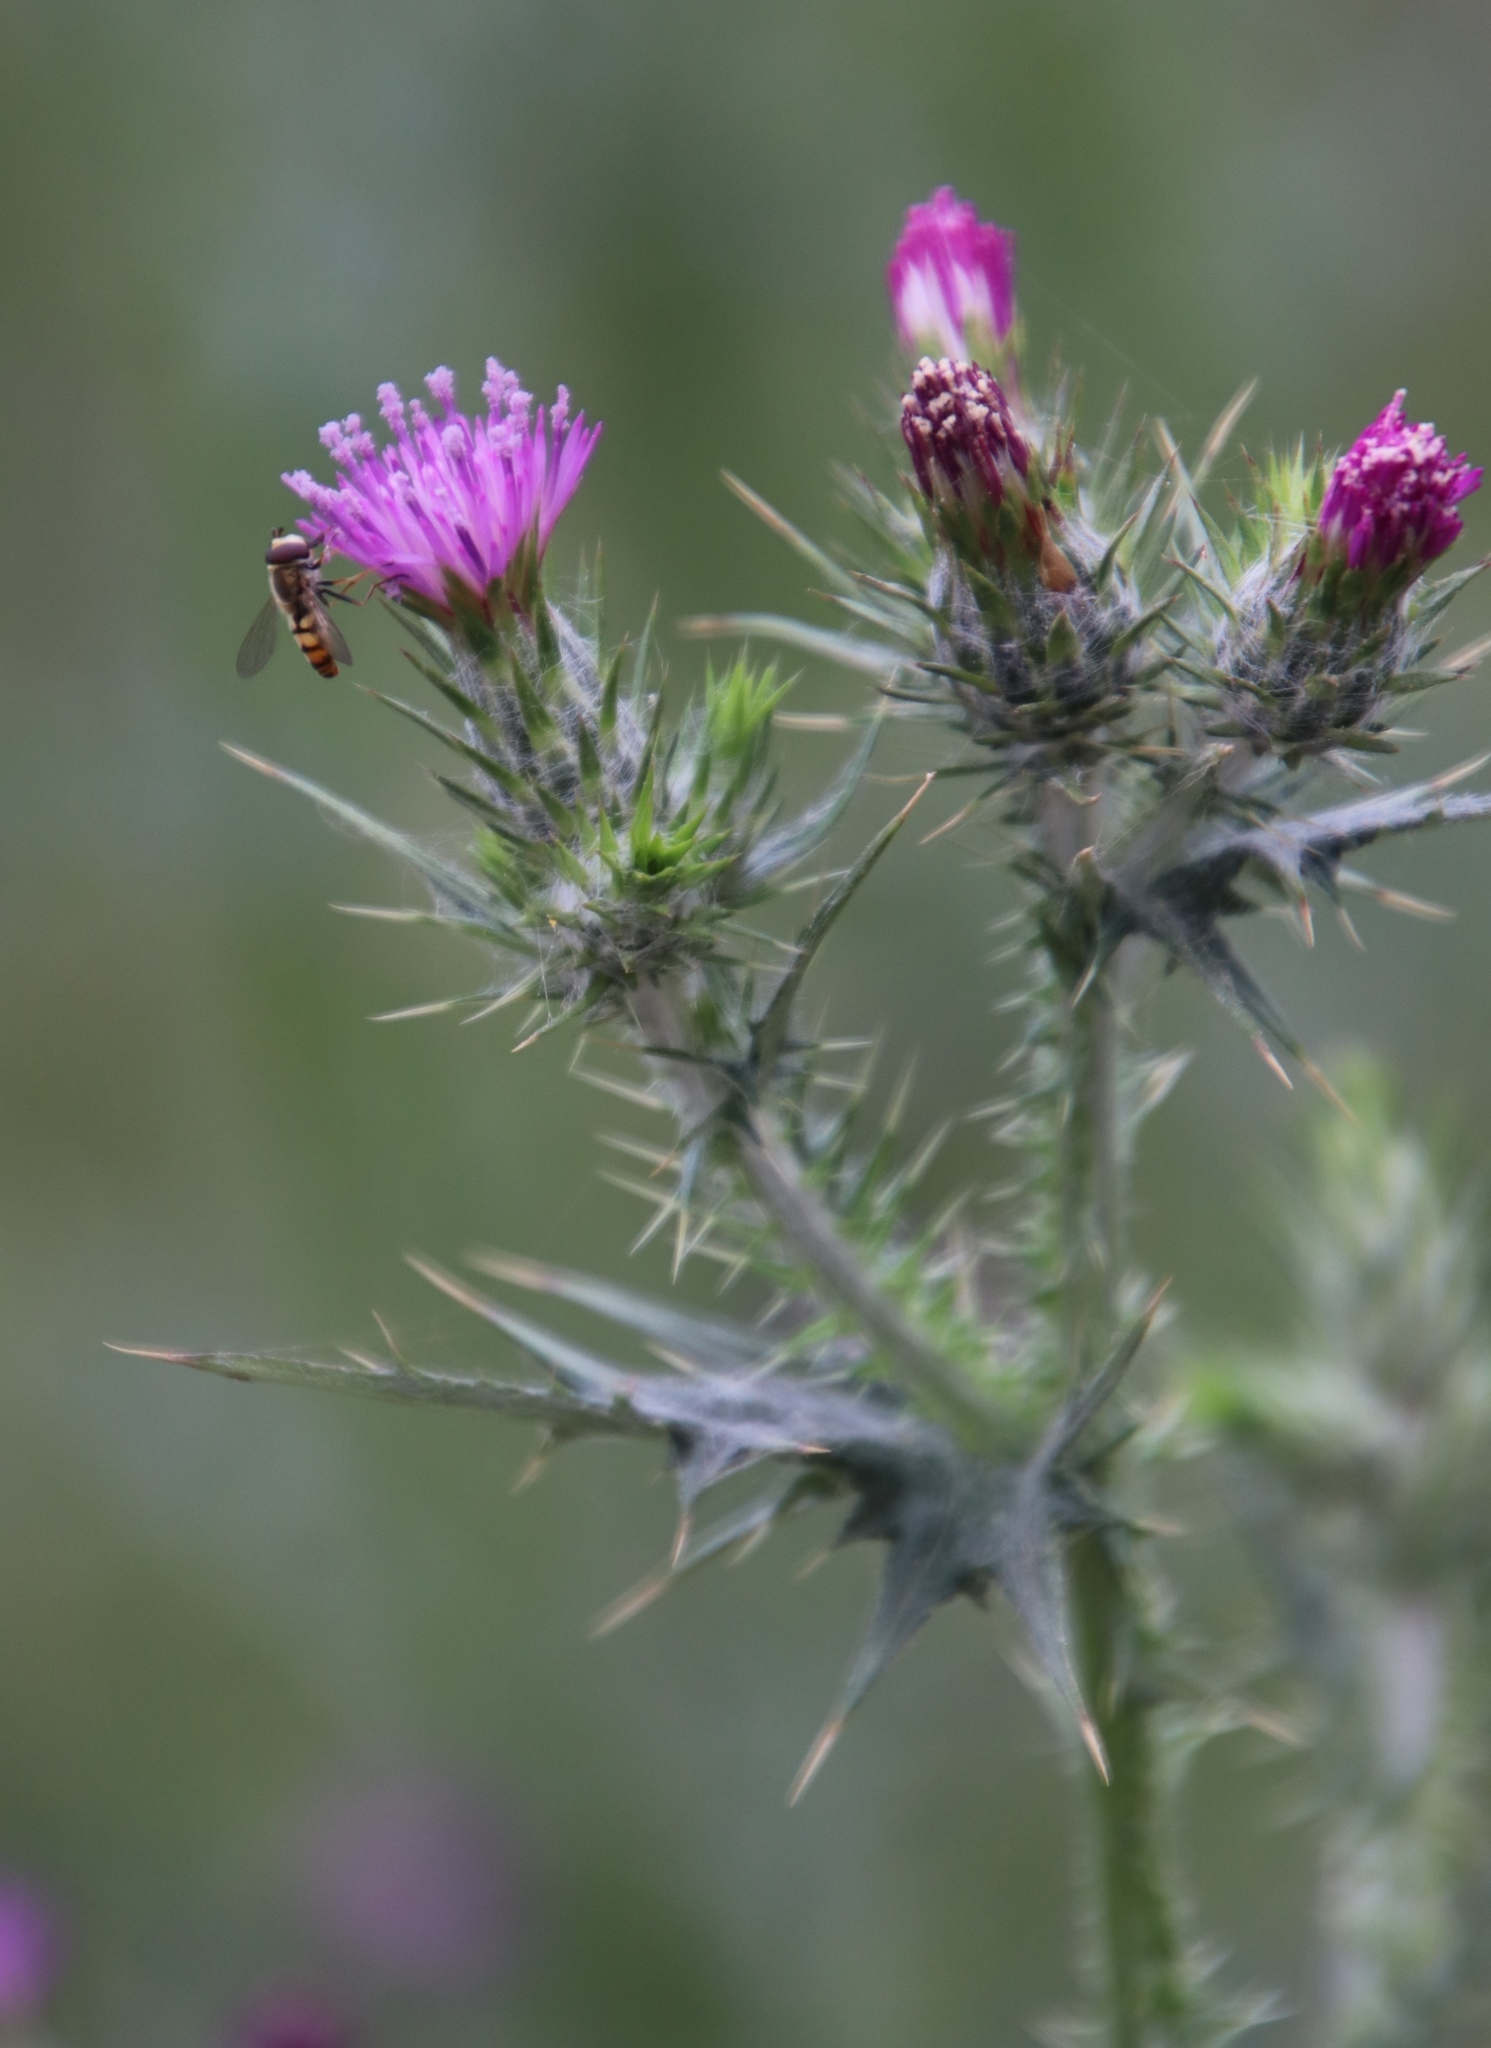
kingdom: Plantae
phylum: Tracheophyta
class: Magnoliopsida
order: Asterales
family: Asteraceae
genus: Carduus
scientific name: Carduus pycnocephalus
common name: Plymouth thistle
